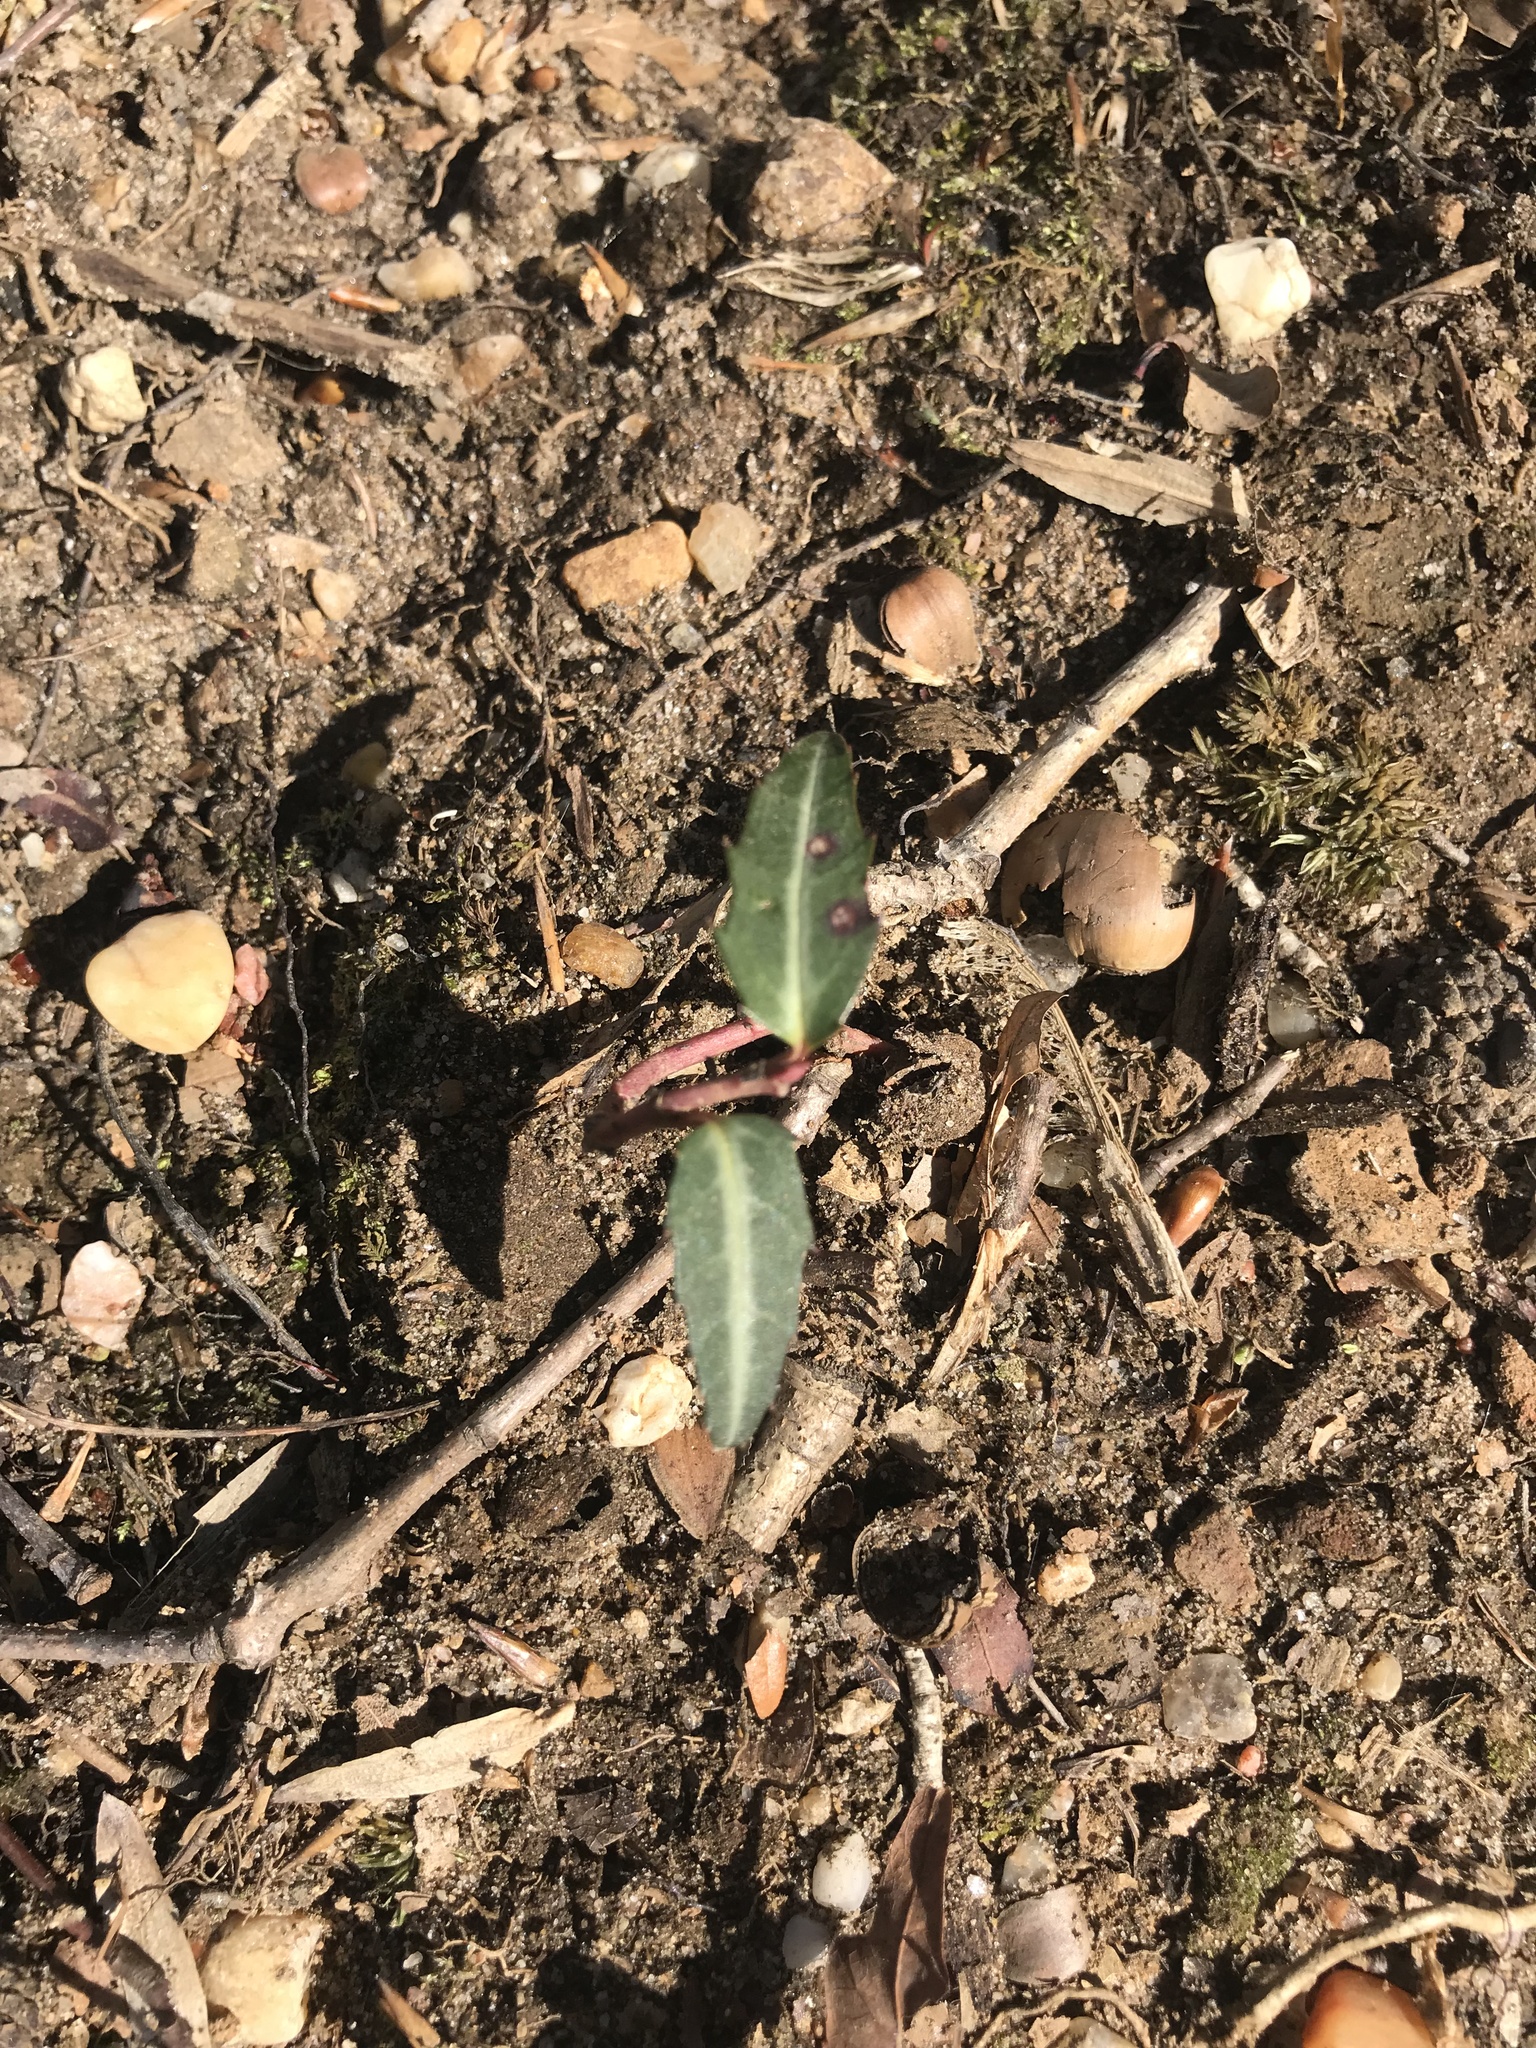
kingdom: Plantae
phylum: Tracheophyta
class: Magnoliopsida
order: Ericales
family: Ericaceae
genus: Chimaphila
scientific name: Chimaphila maculata
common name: Spotted pipsissewa
